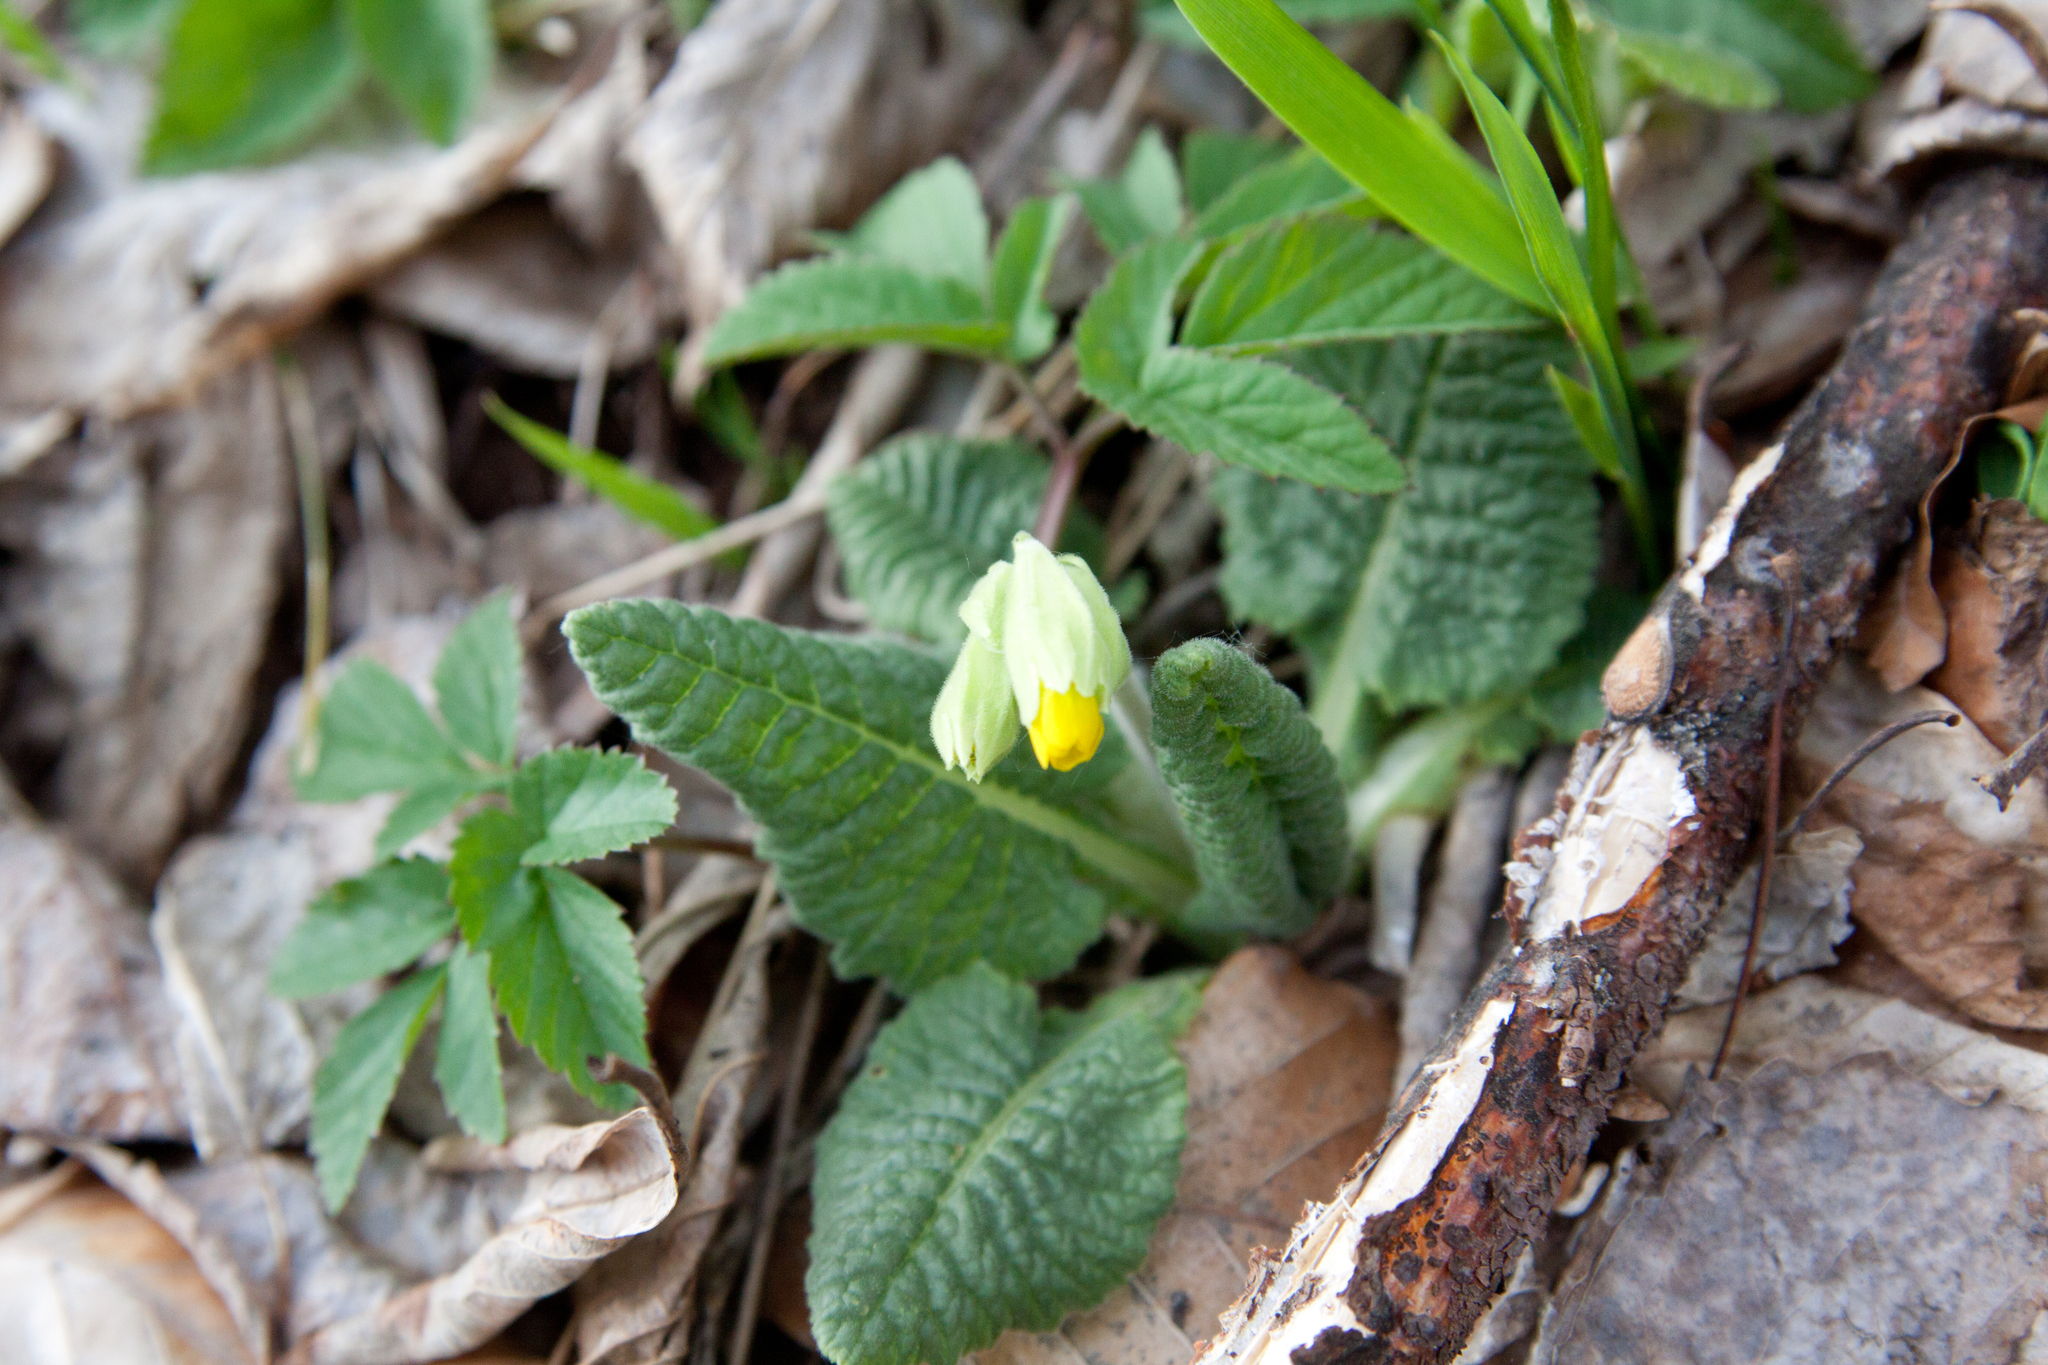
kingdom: Plantae
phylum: Tracheophyta
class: Magnoliopsida
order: Ericales
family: Primulaceae
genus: Primula
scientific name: Primula veris
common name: Cowslip
